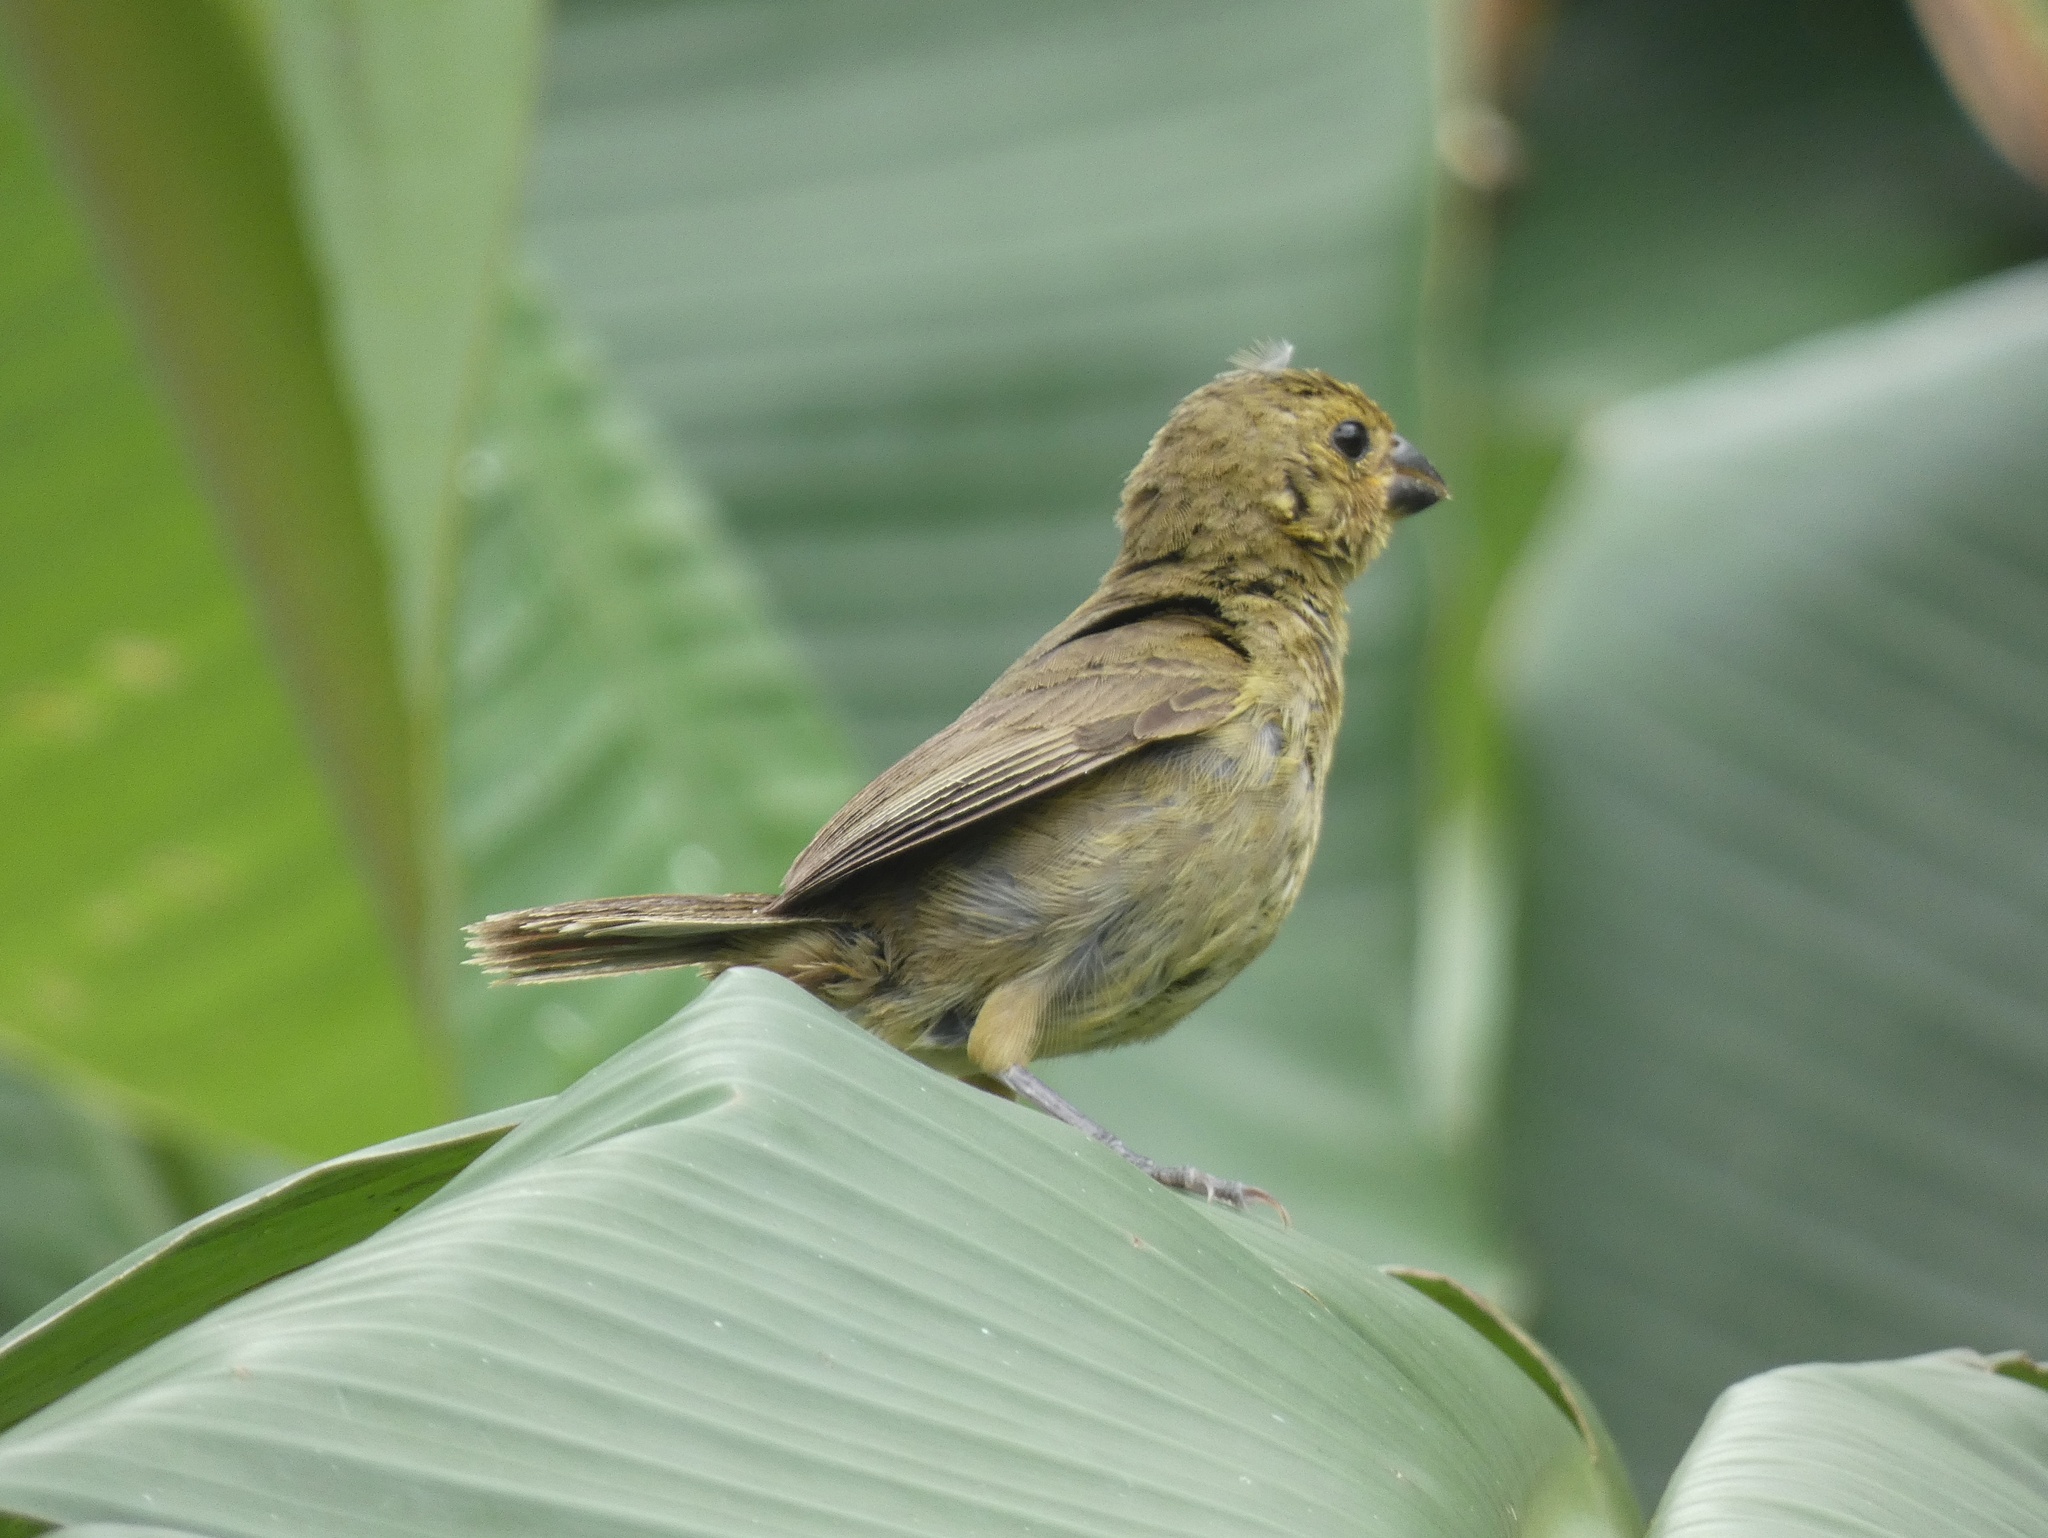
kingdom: Animalia
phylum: Chordata
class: Aves
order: Passeriformes
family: Thraupidae
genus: Sporophila
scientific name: Sporophila corvina
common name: Variable seedeater
